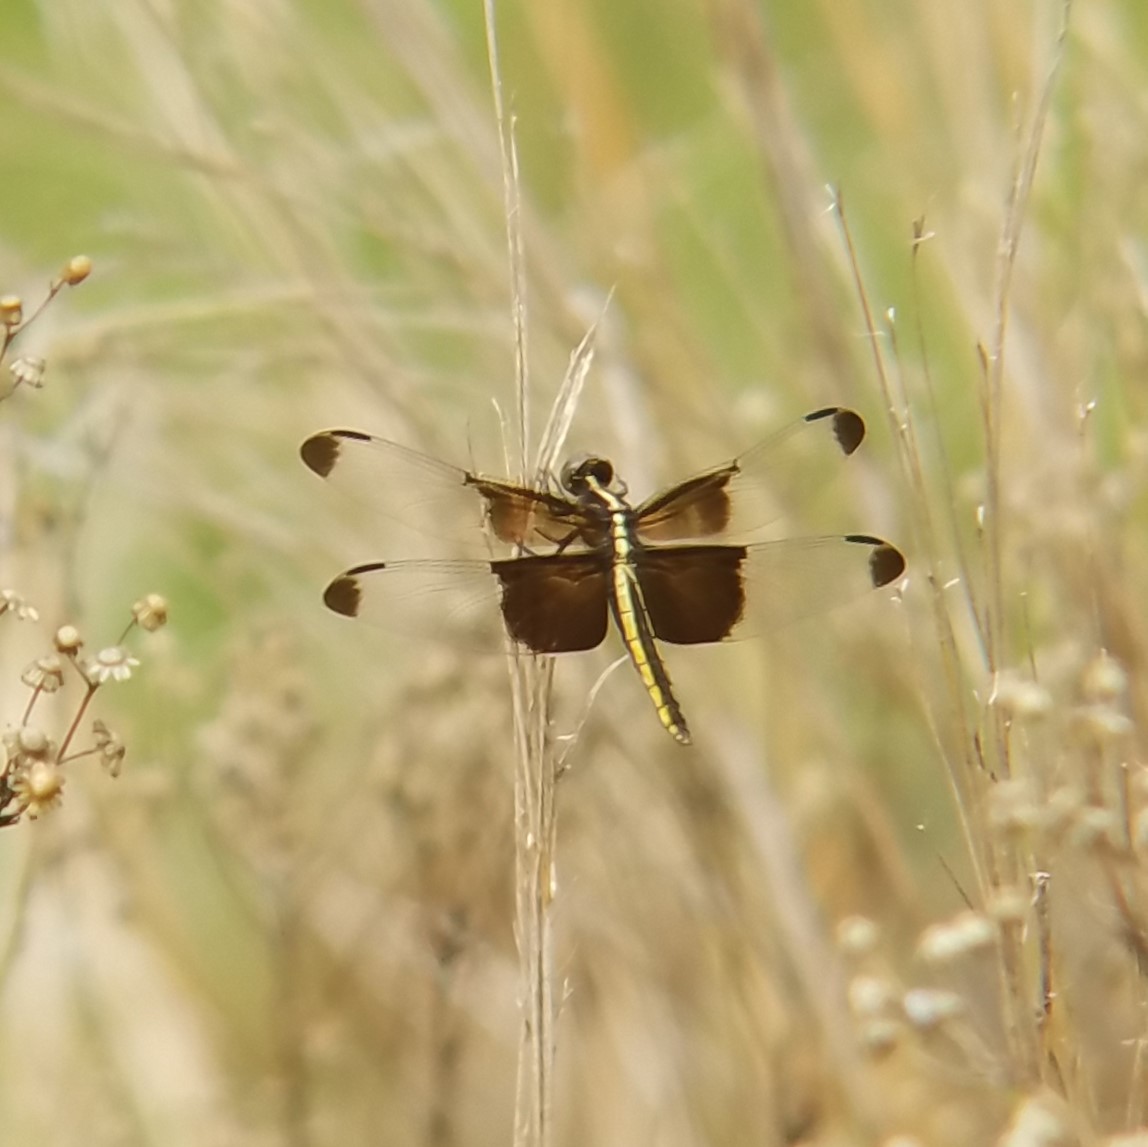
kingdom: Animalia
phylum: Arthropoda
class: Insecta
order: Odonata
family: Libellulidae
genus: Libellula
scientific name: Libellula luctuosa
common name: Widow skimmer
